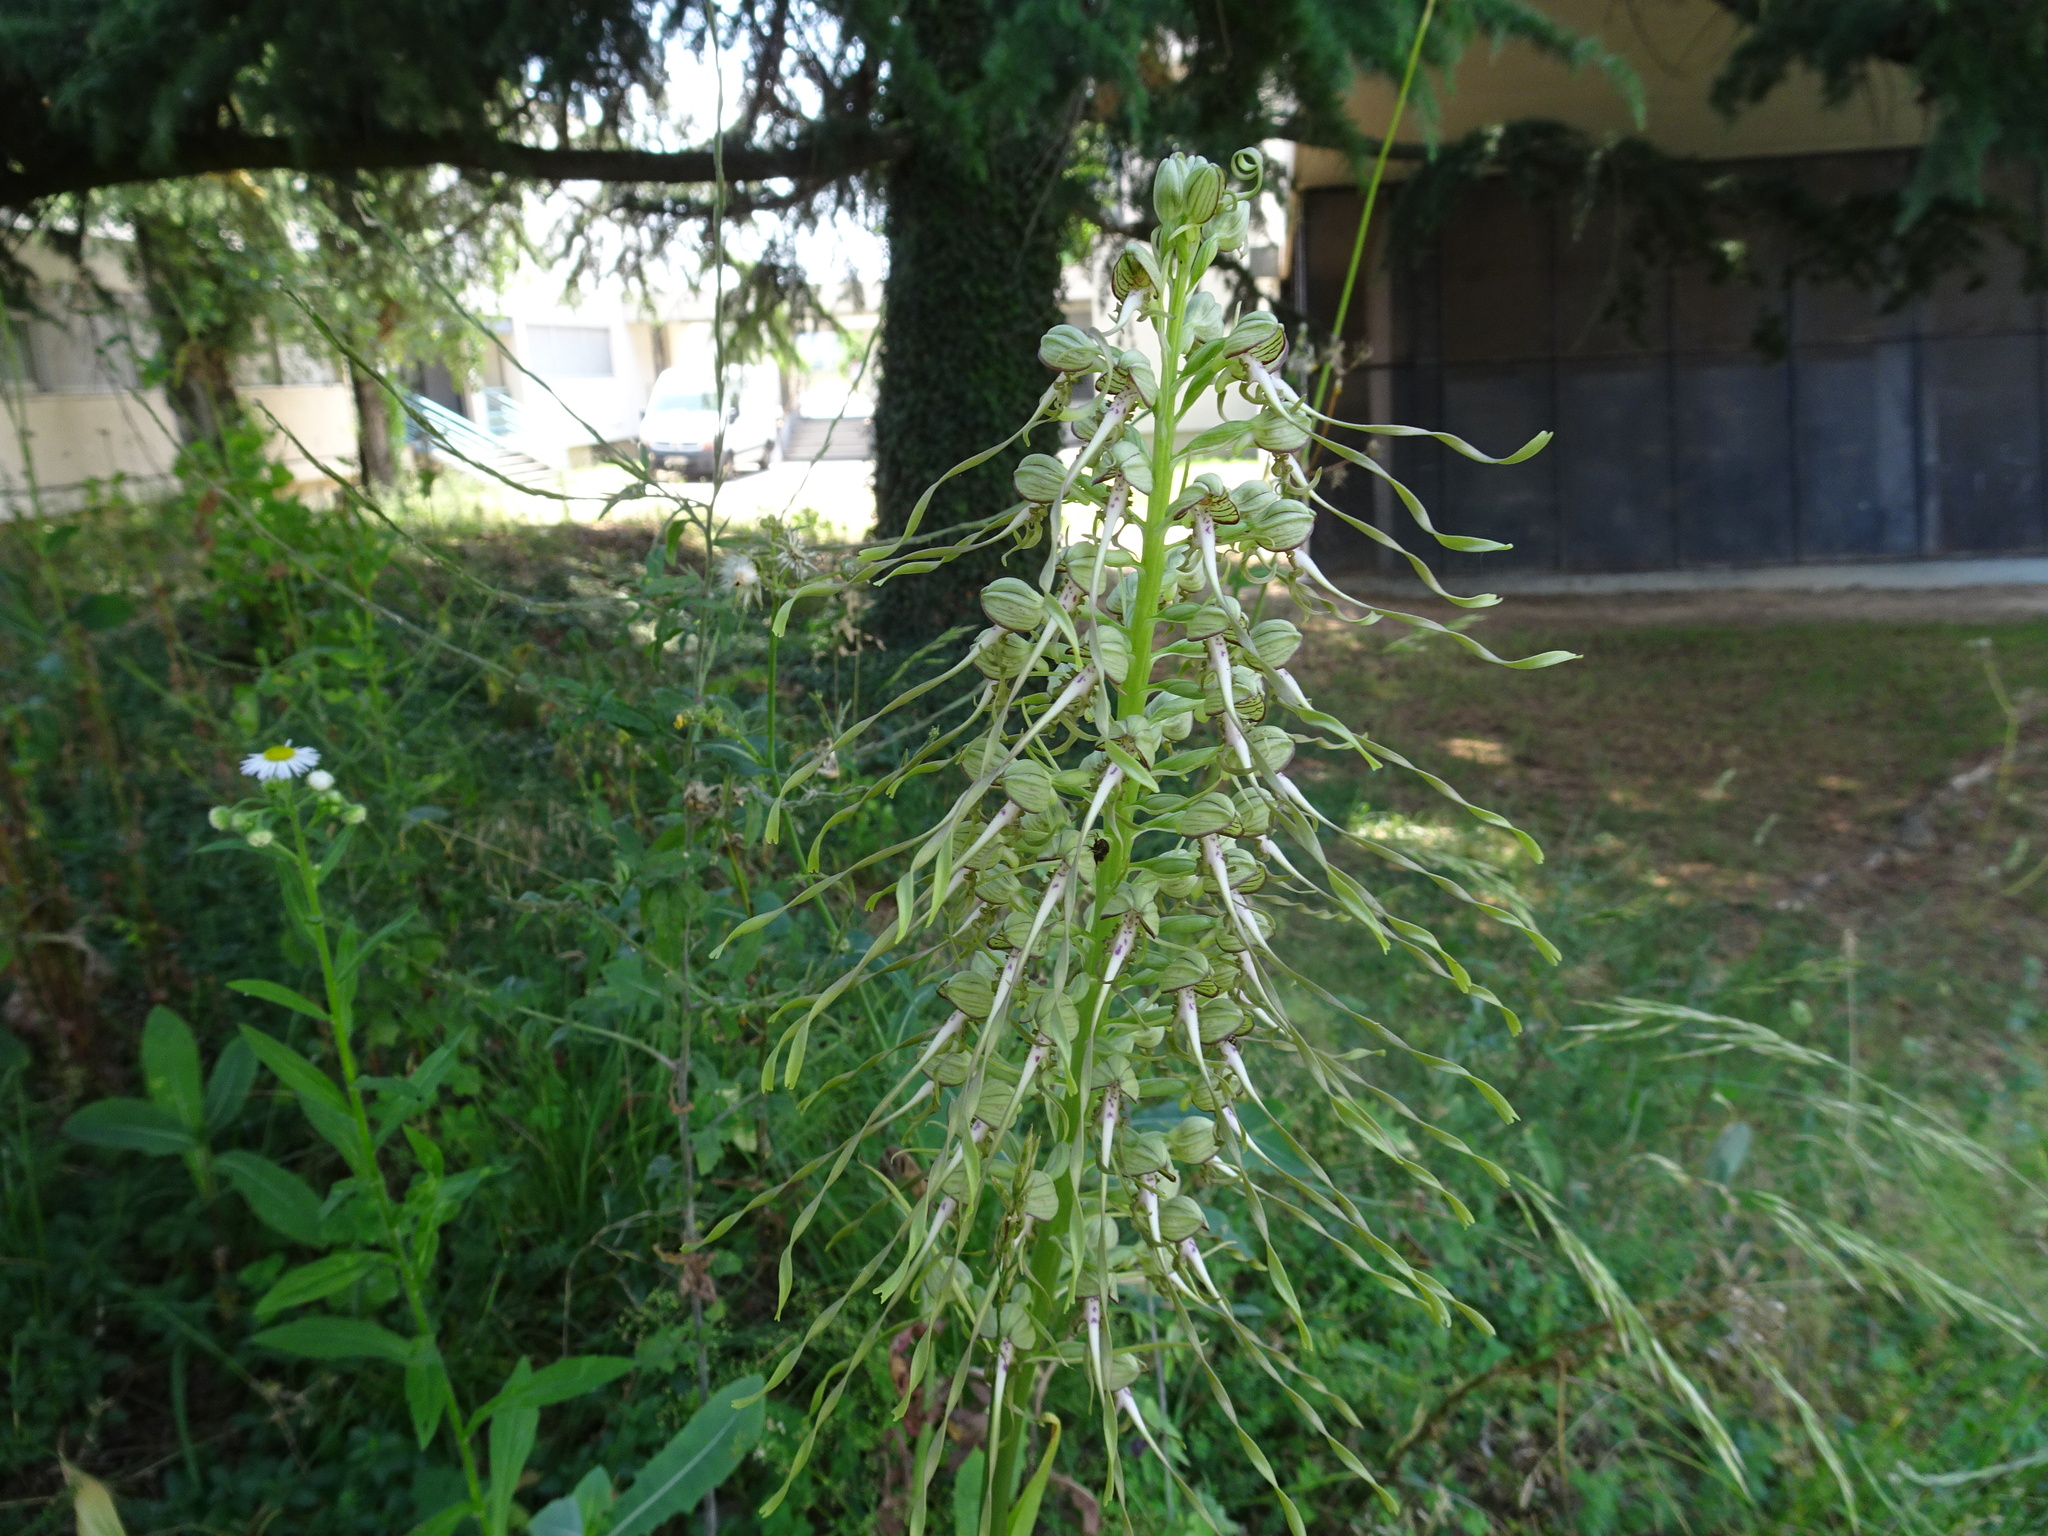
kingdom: Plantae
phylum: Tracheophyta
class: Liliopsida
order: Asparagales
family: Orchidaceae
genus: Himantoglossum
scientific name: Himantoglossum hircinum
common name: Lizard orchid
